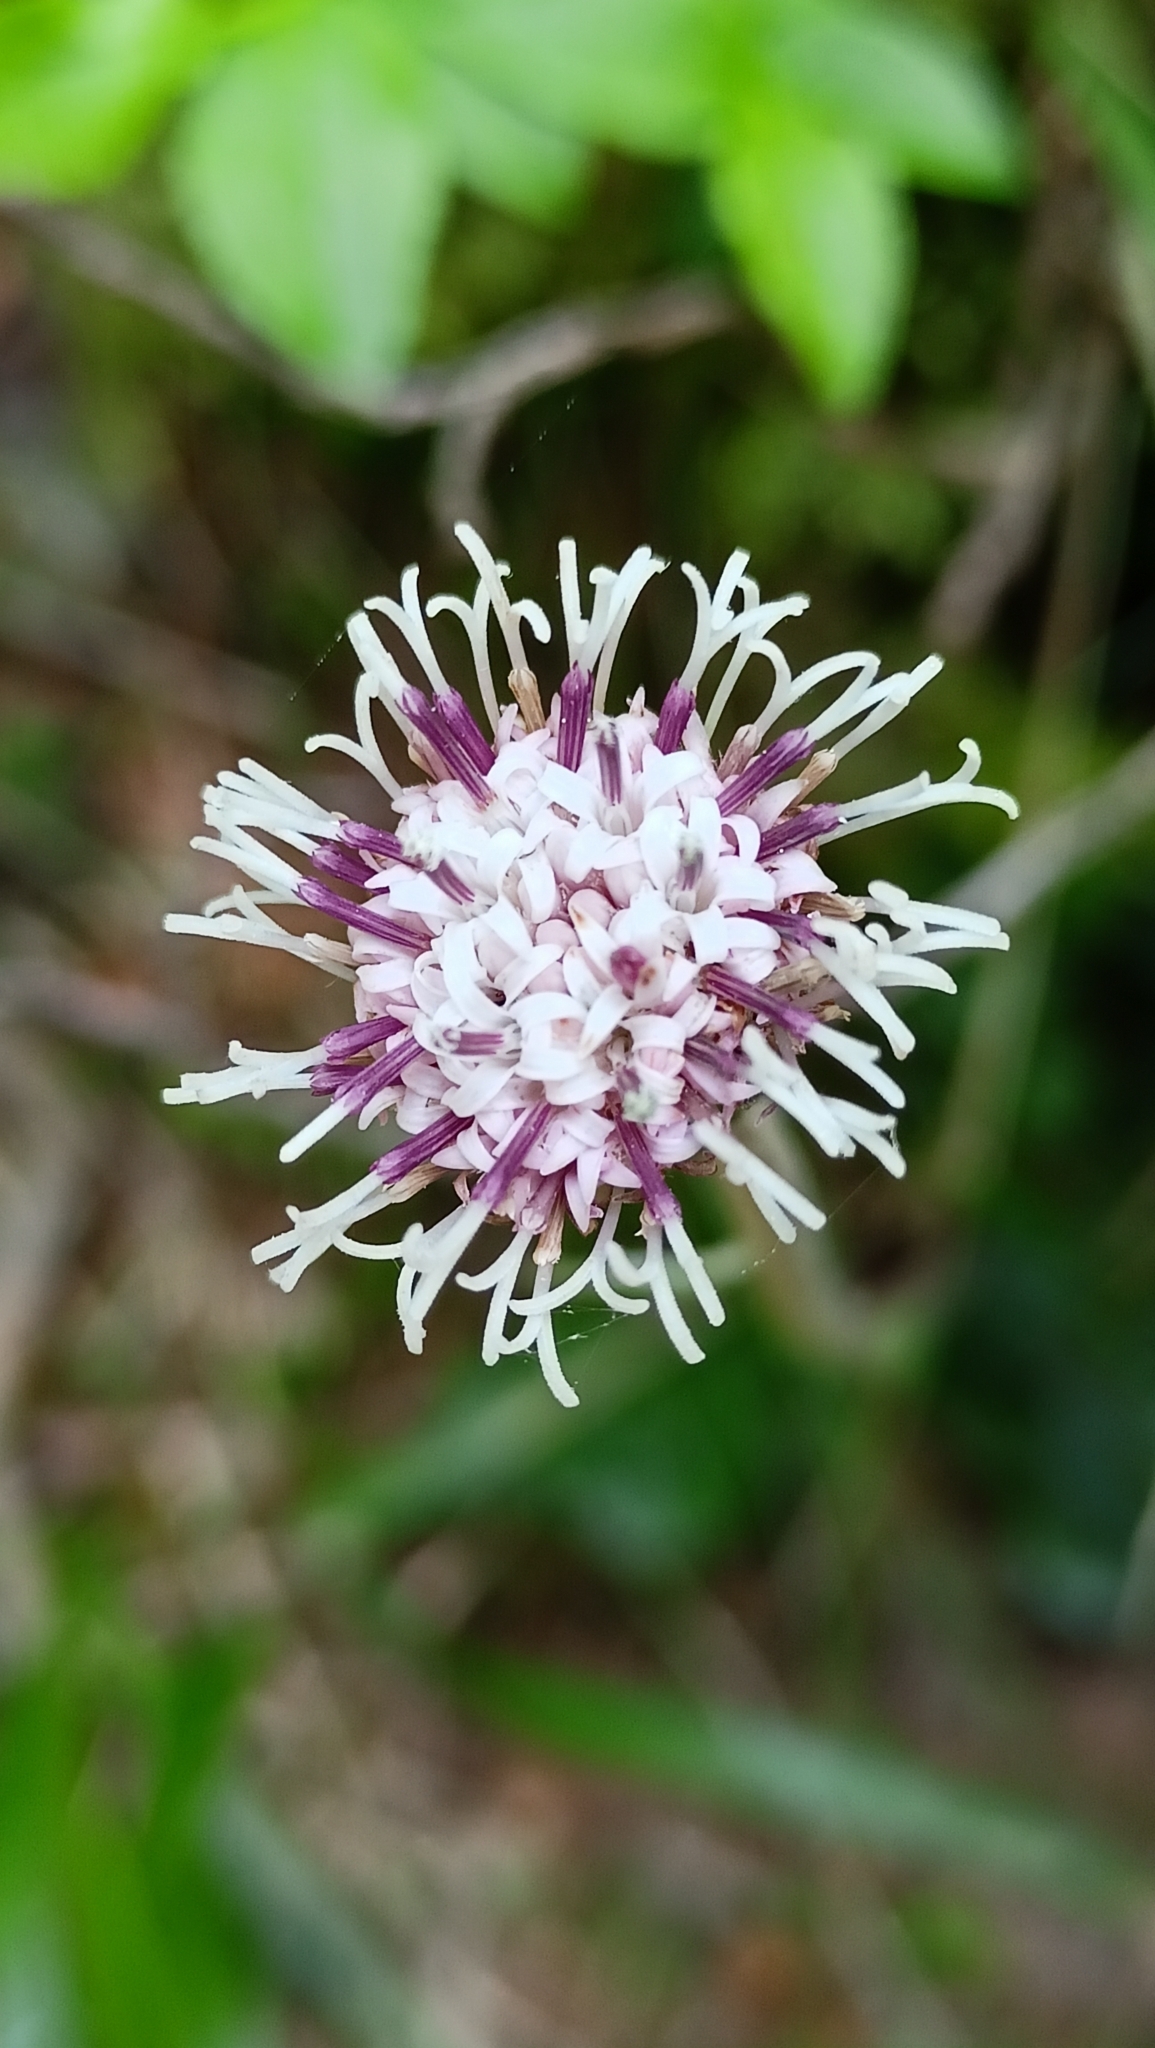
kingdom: Plantae
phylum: Tracheophyta
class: Magnoliopsida
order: Asterales
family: Asteraceae
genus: Homogyne
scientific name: Homogyne alpina
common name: Purple colt's-foot
